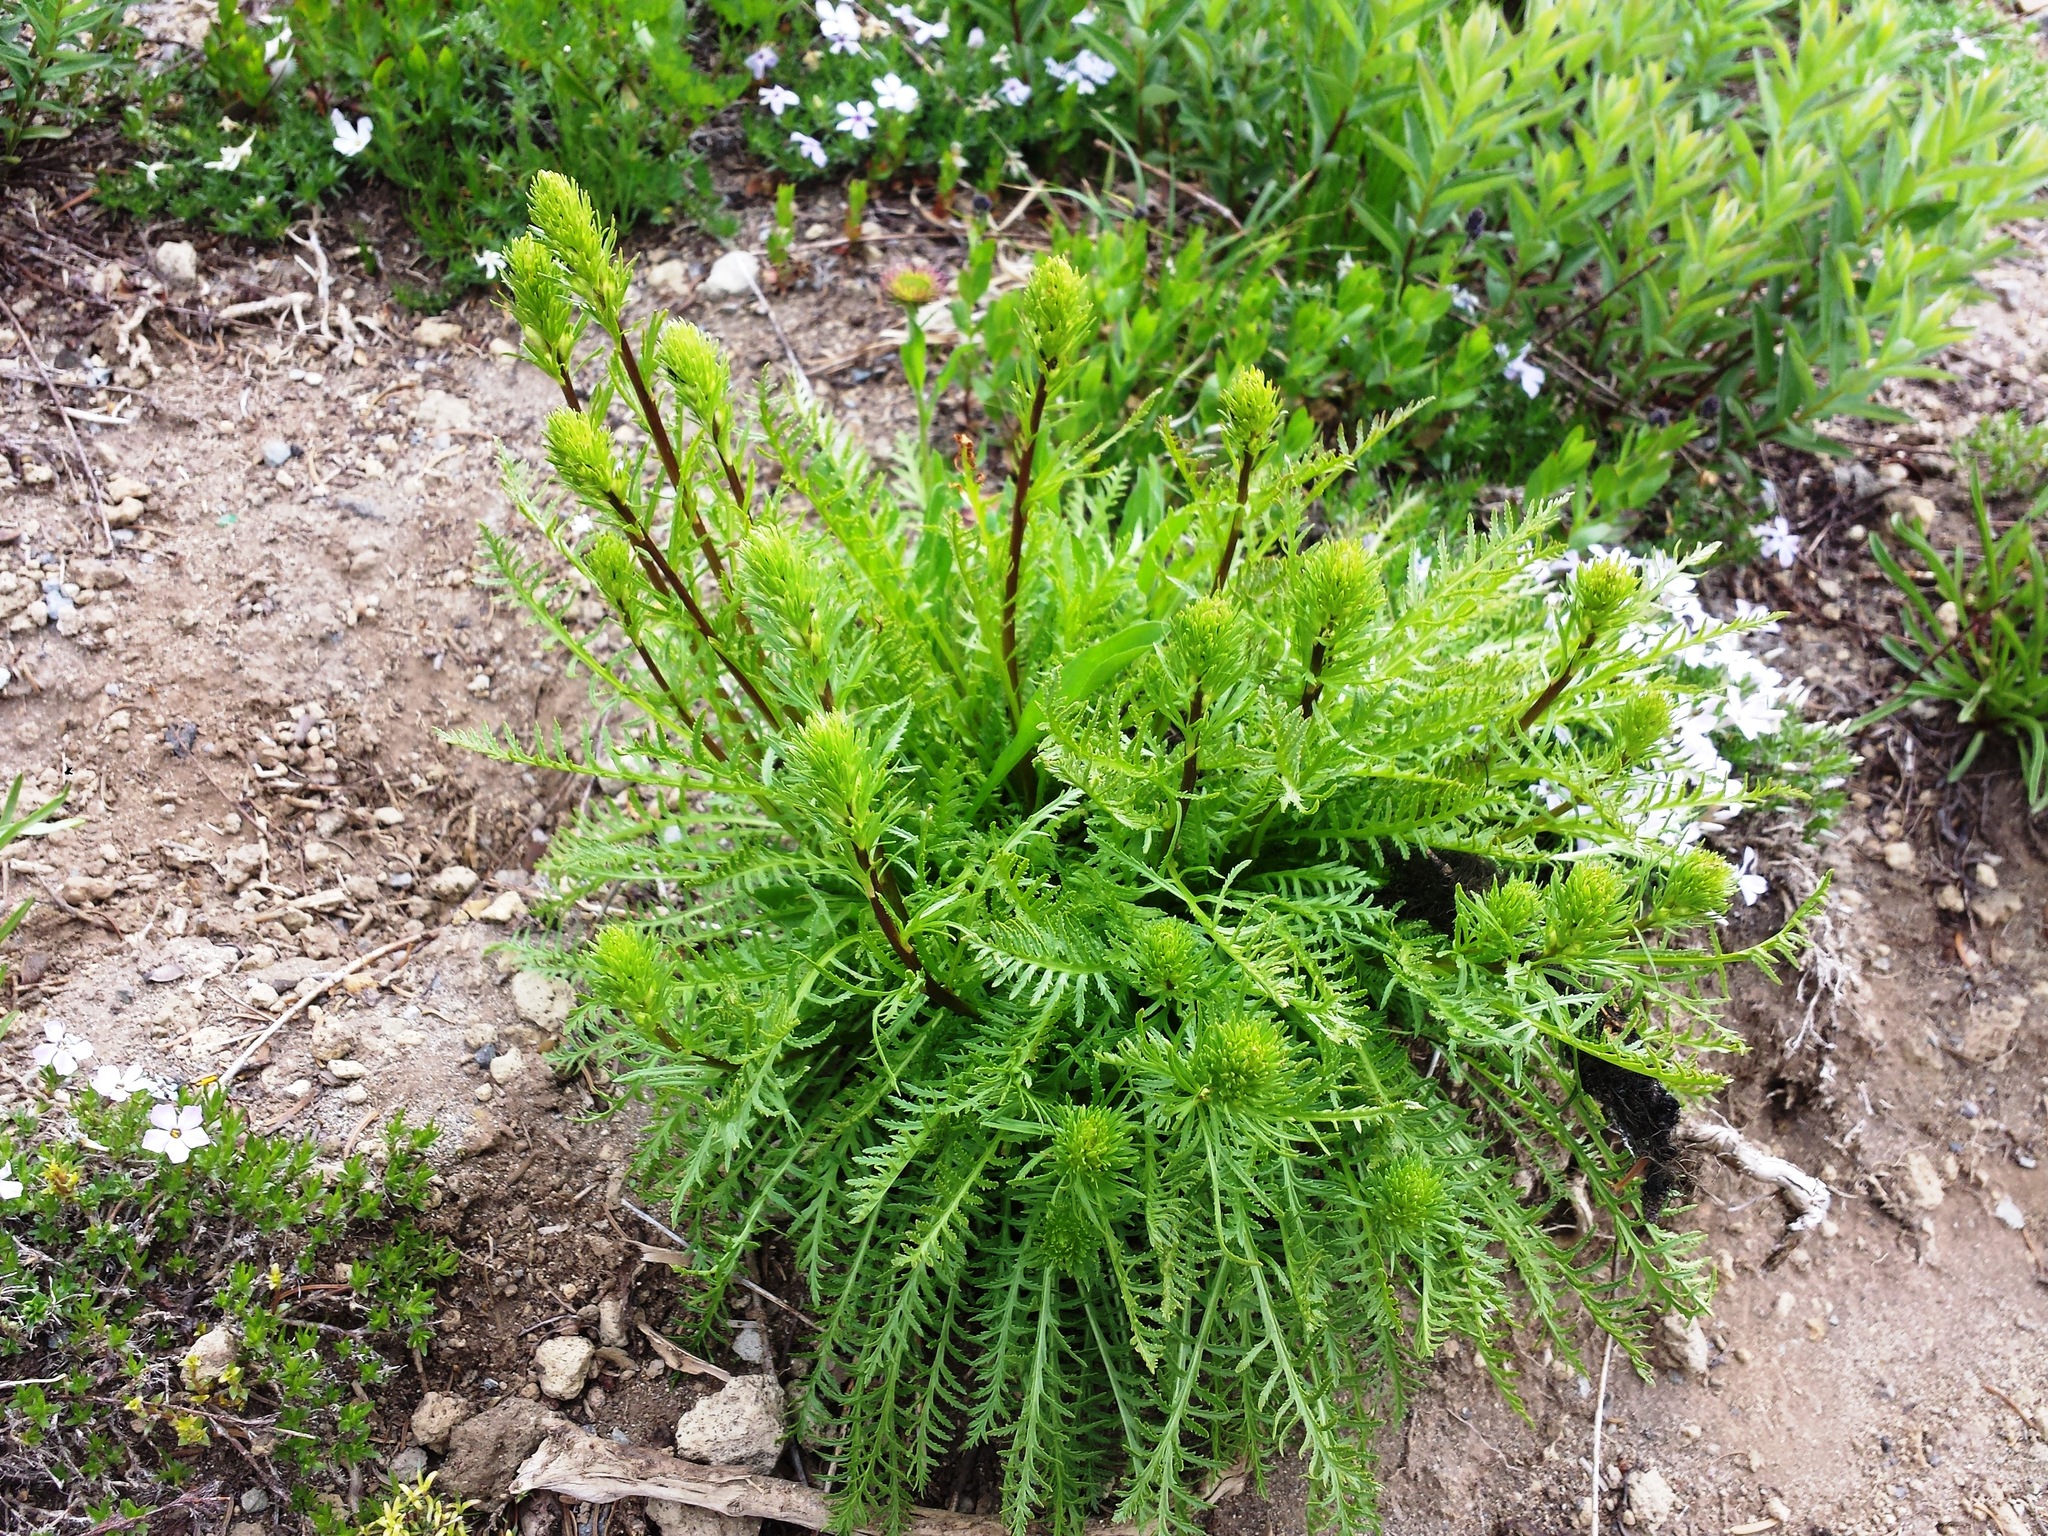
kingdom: Plantae
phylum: Tracheophyta
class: Magnoliopsida
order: Lamiales
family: Orobanchaceae
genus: Pedicularis
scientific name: Pedicularis contorta
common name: Coiled lousewort
